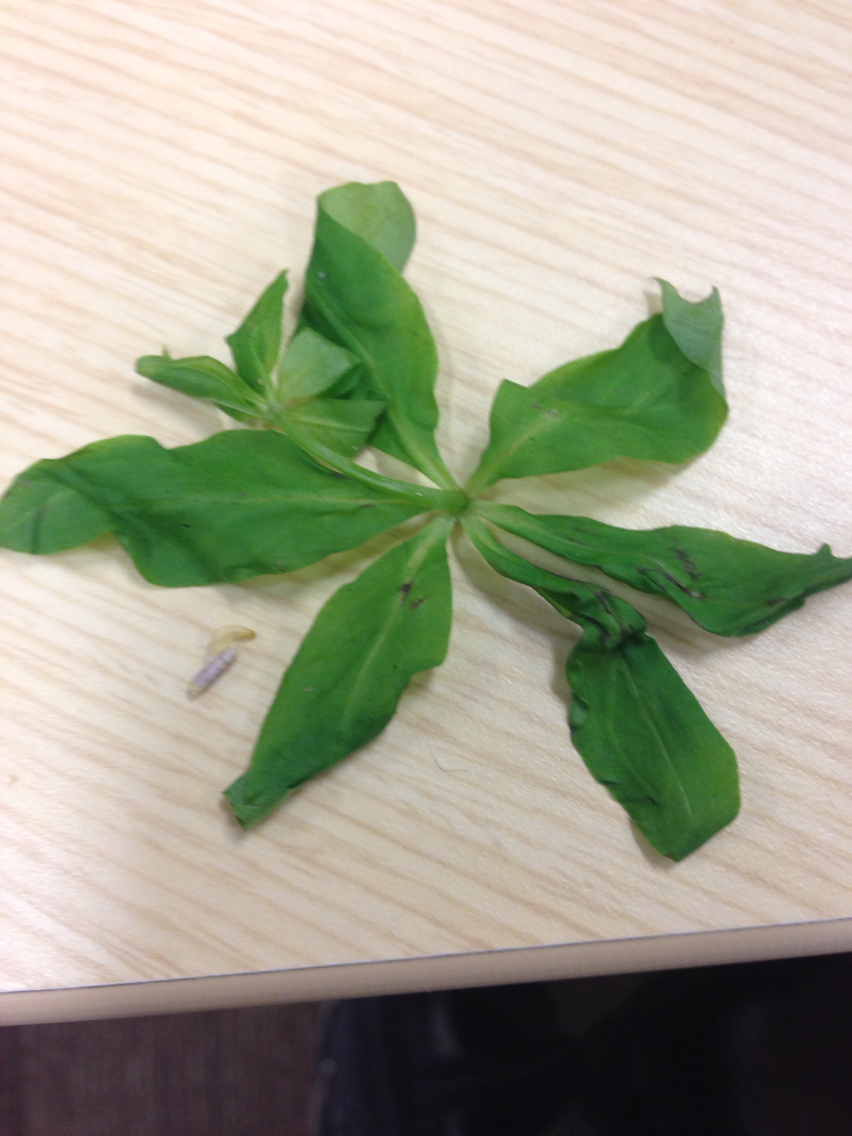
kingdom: Plantae
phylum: Tracheophyta
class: Magnoliopsida
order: Gentianales
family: Rubiaceae
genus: Galium
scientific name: Galium triflorum
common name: Fragrant bedstraw
